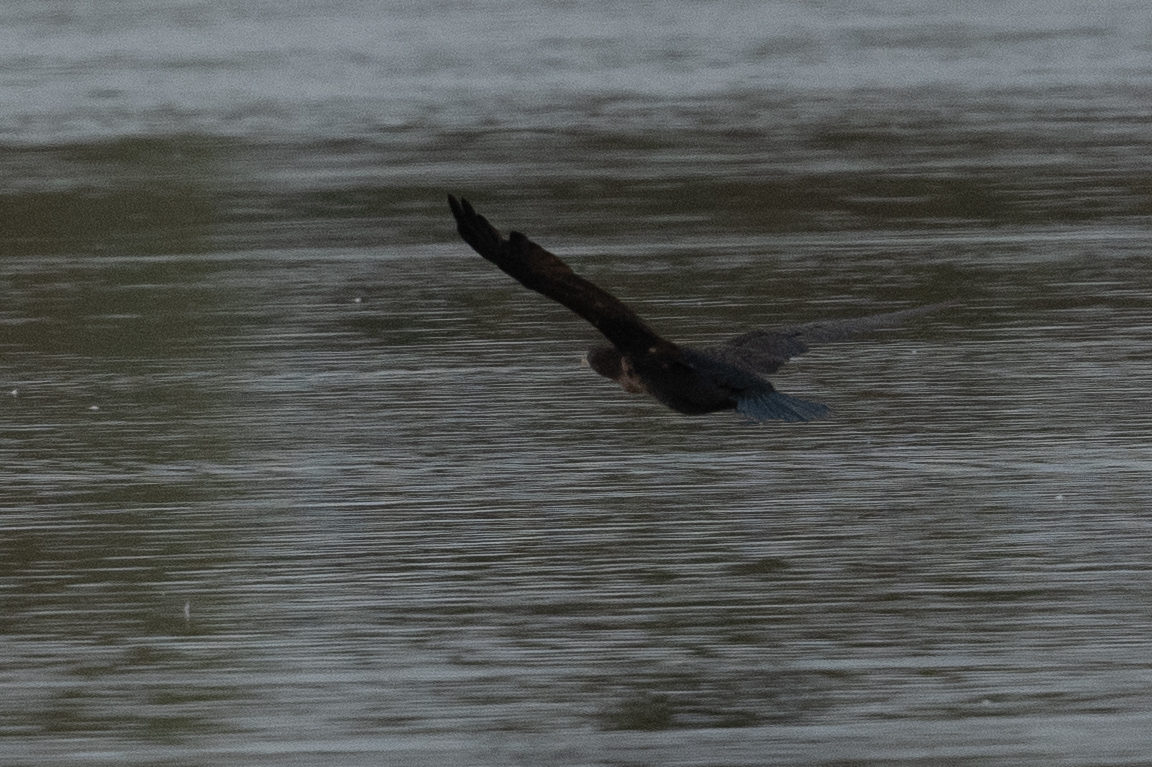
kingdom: Animalia
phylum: Chordata
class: Aves
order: Suliformes
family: Phalacrocoracidae
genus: Phalacrocorax
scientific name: Phalacrocorax auritus
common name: Double-crested cormorant
